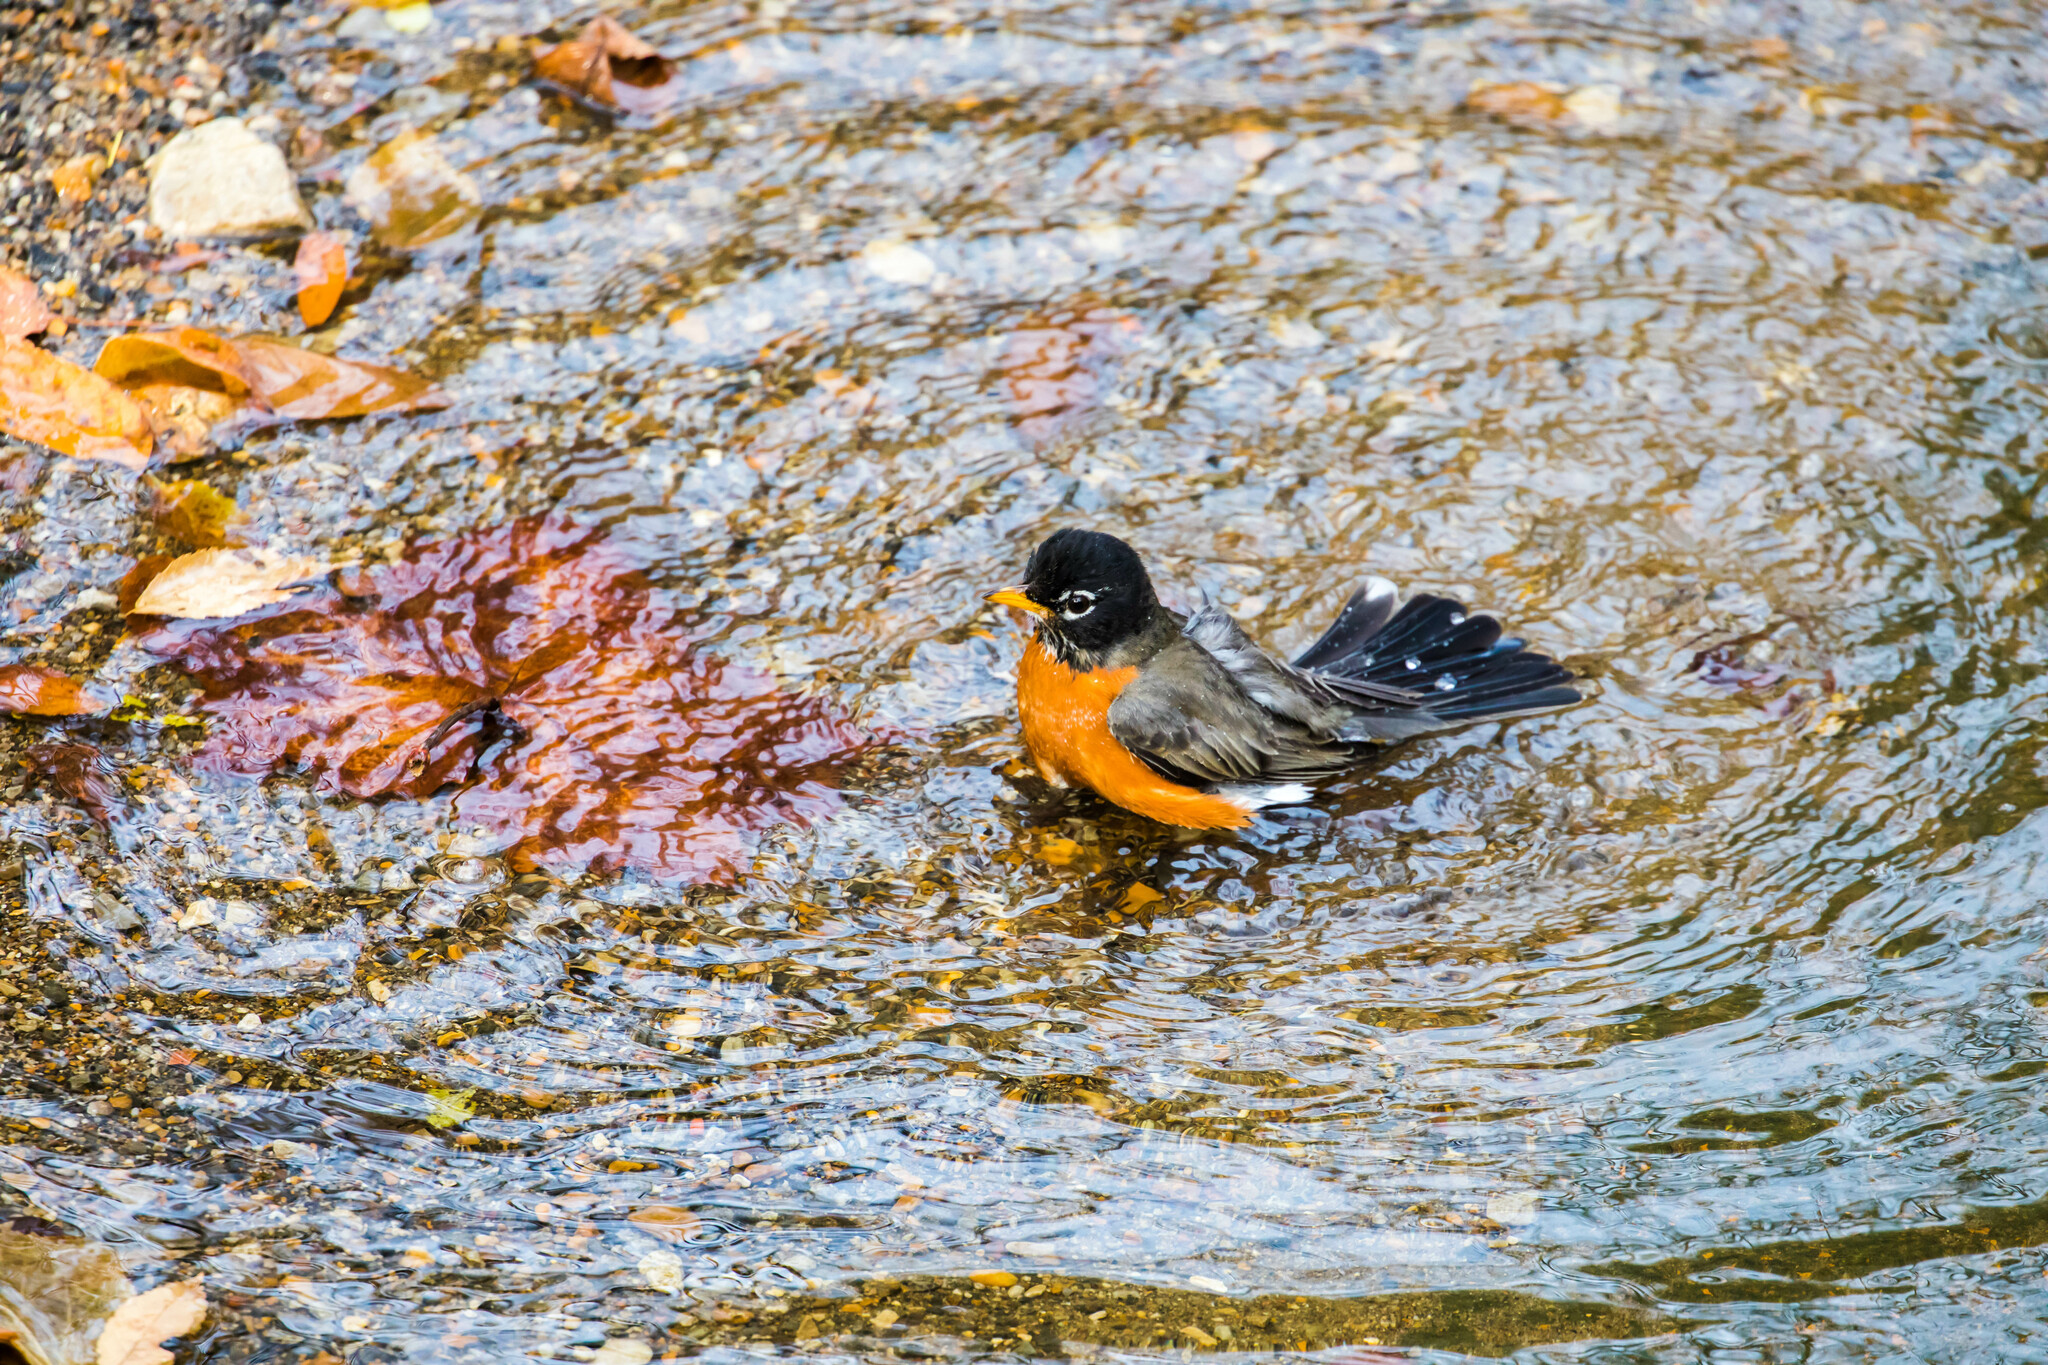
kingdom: Animalia
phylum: Chordata
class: Aves
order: Passeriformes
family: Turdidae
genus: Turdus
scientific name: Turdus migratorius
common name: American robin
